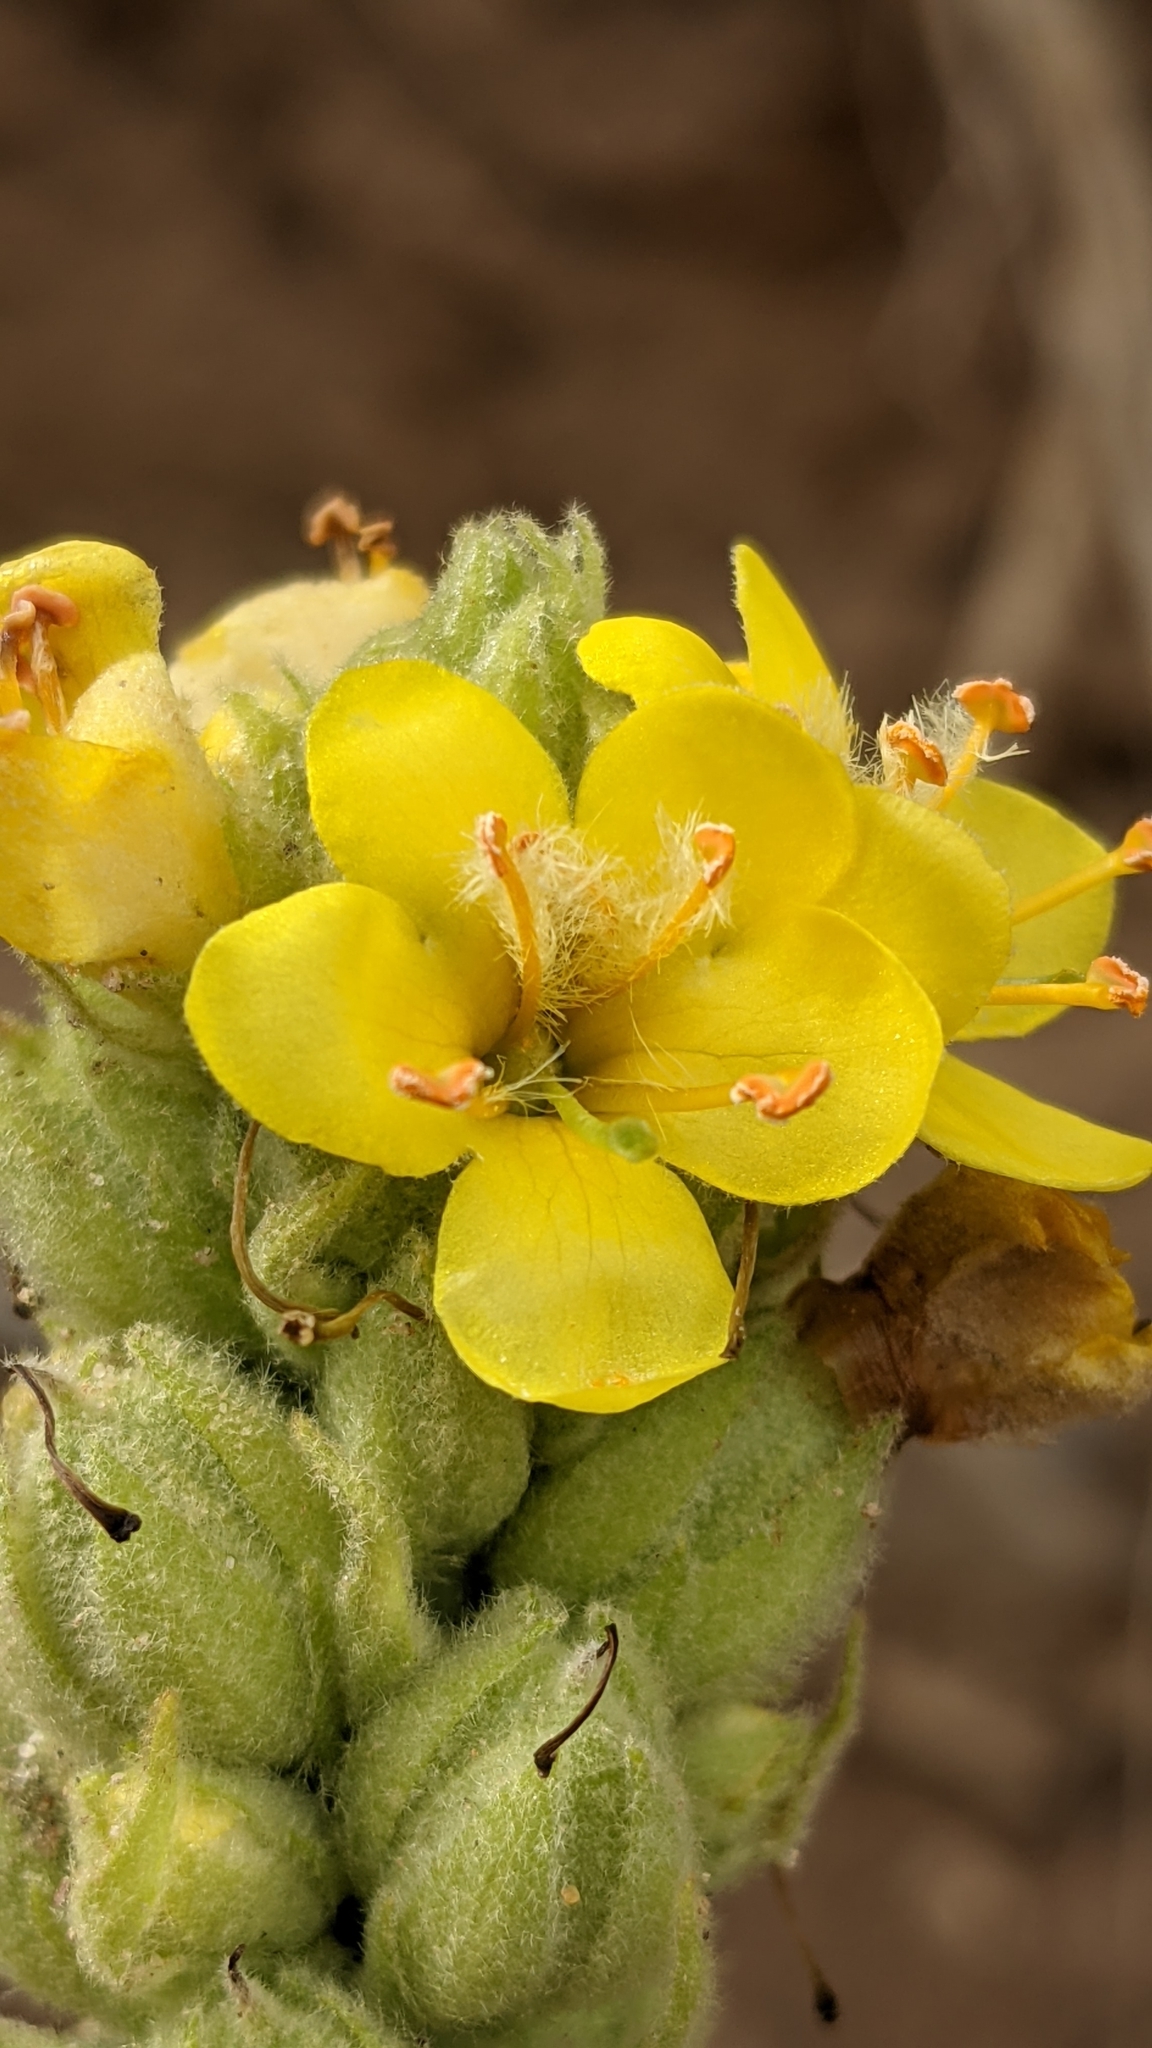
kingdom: Plantae
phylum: Tracheophyta
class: Magnoliopsida
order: Lamiales
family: Scrophulariaceae
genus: Verbascum
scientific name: Verbascum thapsus
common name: Common mullein
